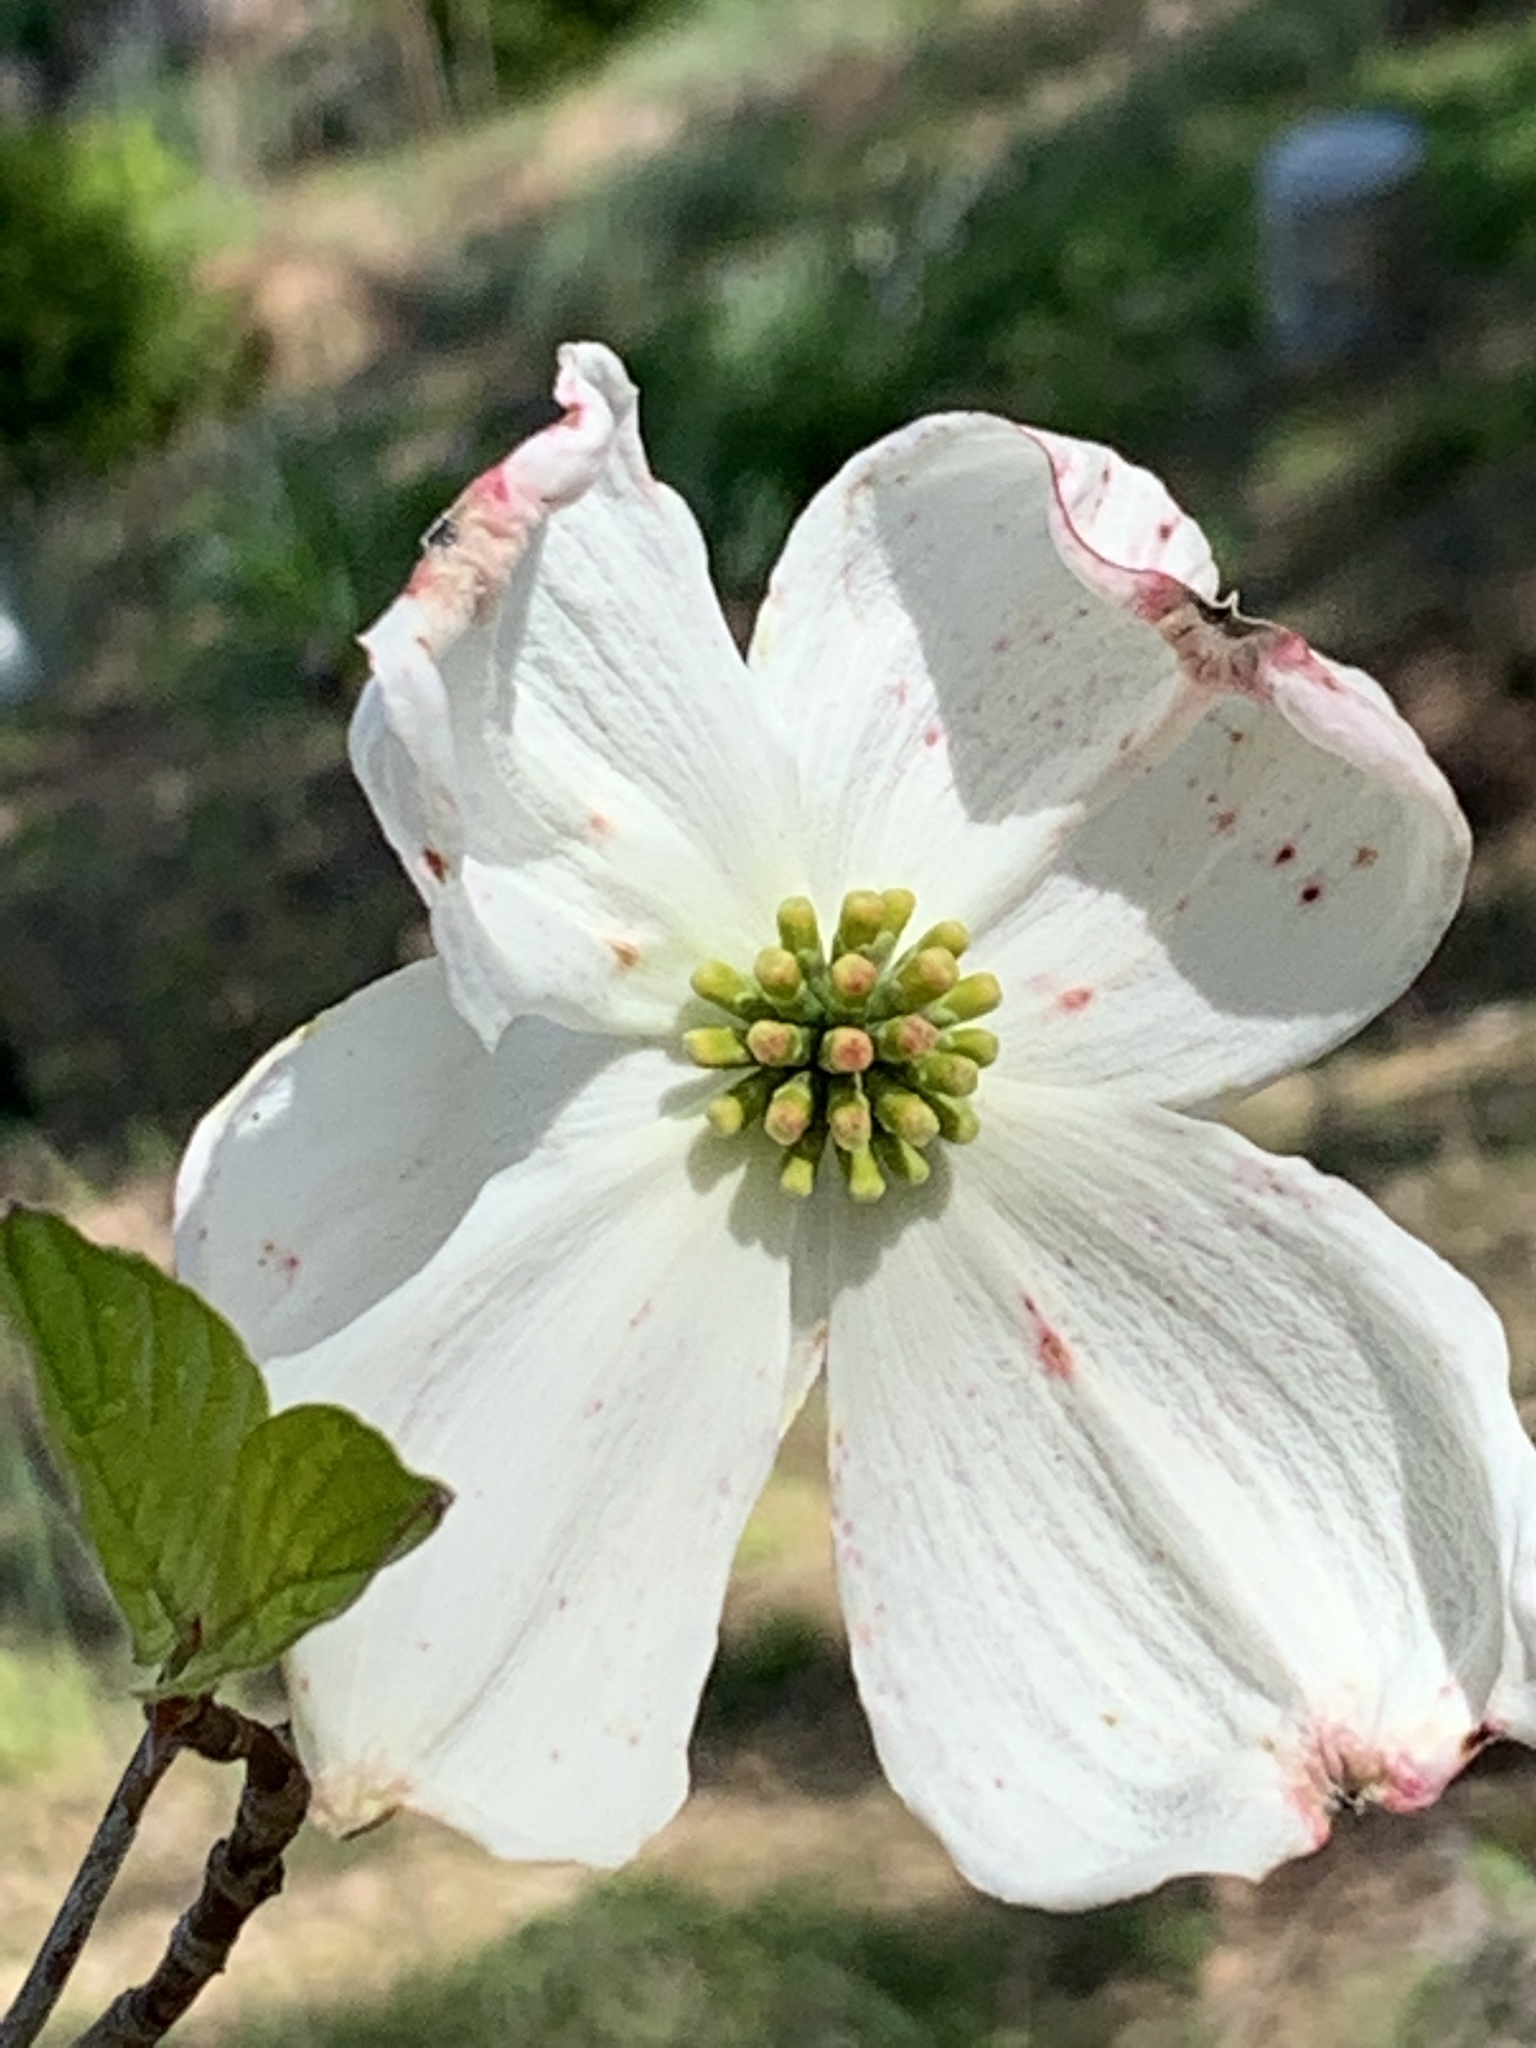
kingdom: Plantae
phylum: Tracheophyta
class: Magnoliopsida
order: Cornales
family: Cornaceae
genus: Cornus
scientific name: Cornus florida
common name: Flowering dogwood
